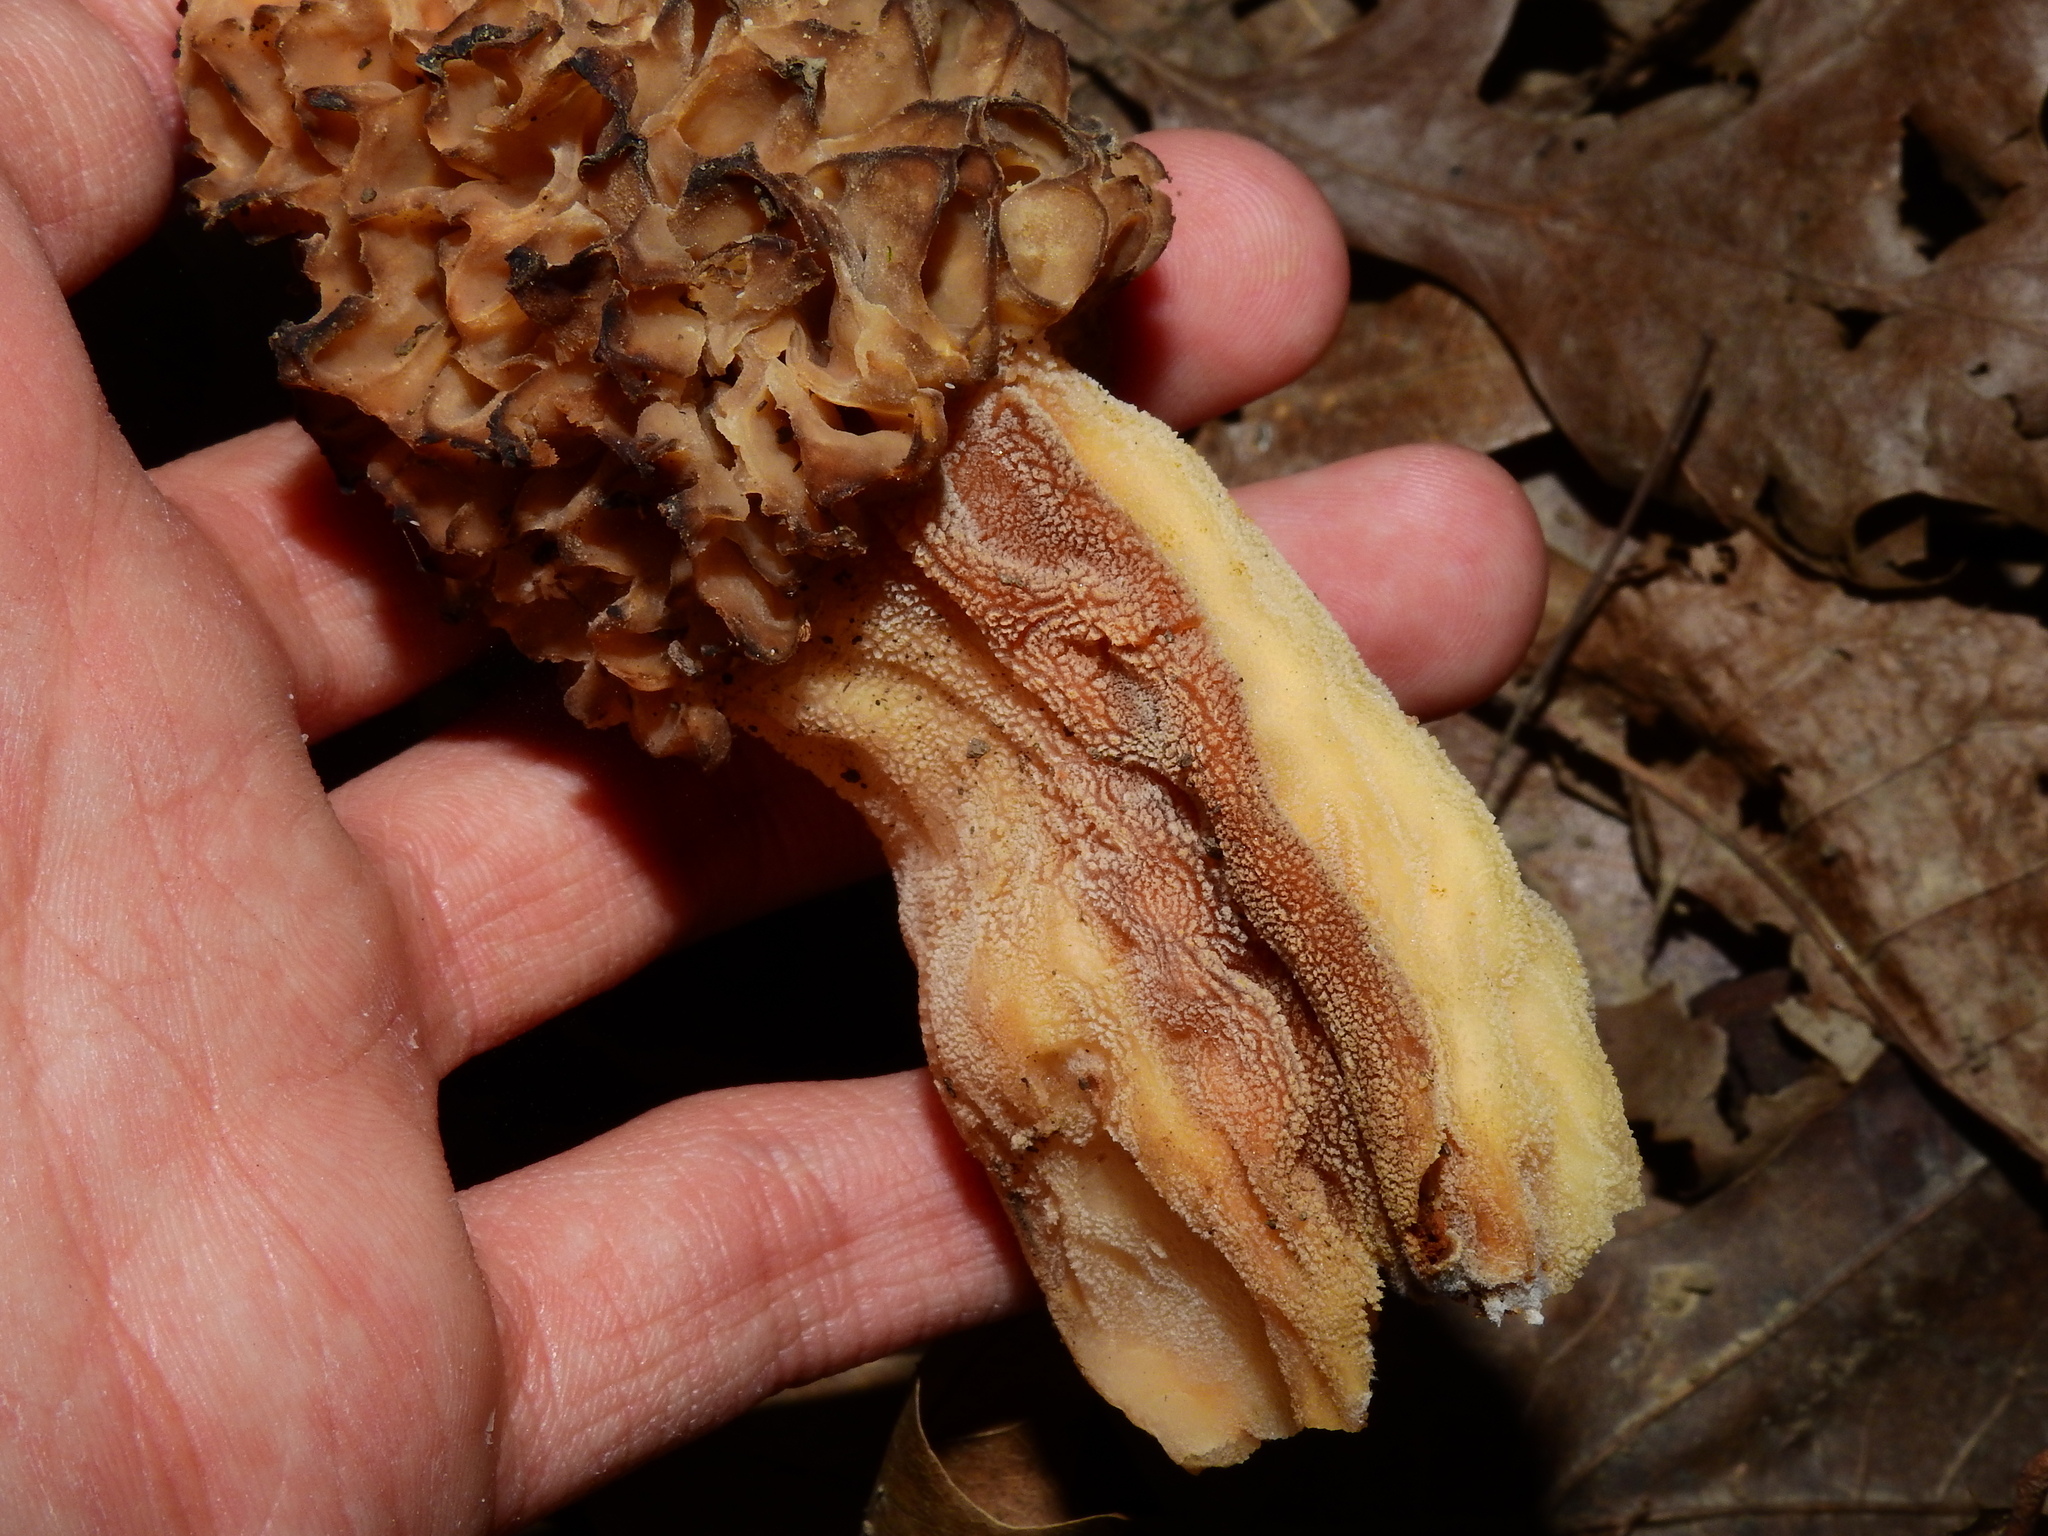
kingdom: Fungi
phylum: Ascomycota
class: Pezizomycetes
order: Pezizales
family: Morchellaceae
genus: Morchella
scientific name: Morchella americana
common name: White morel
